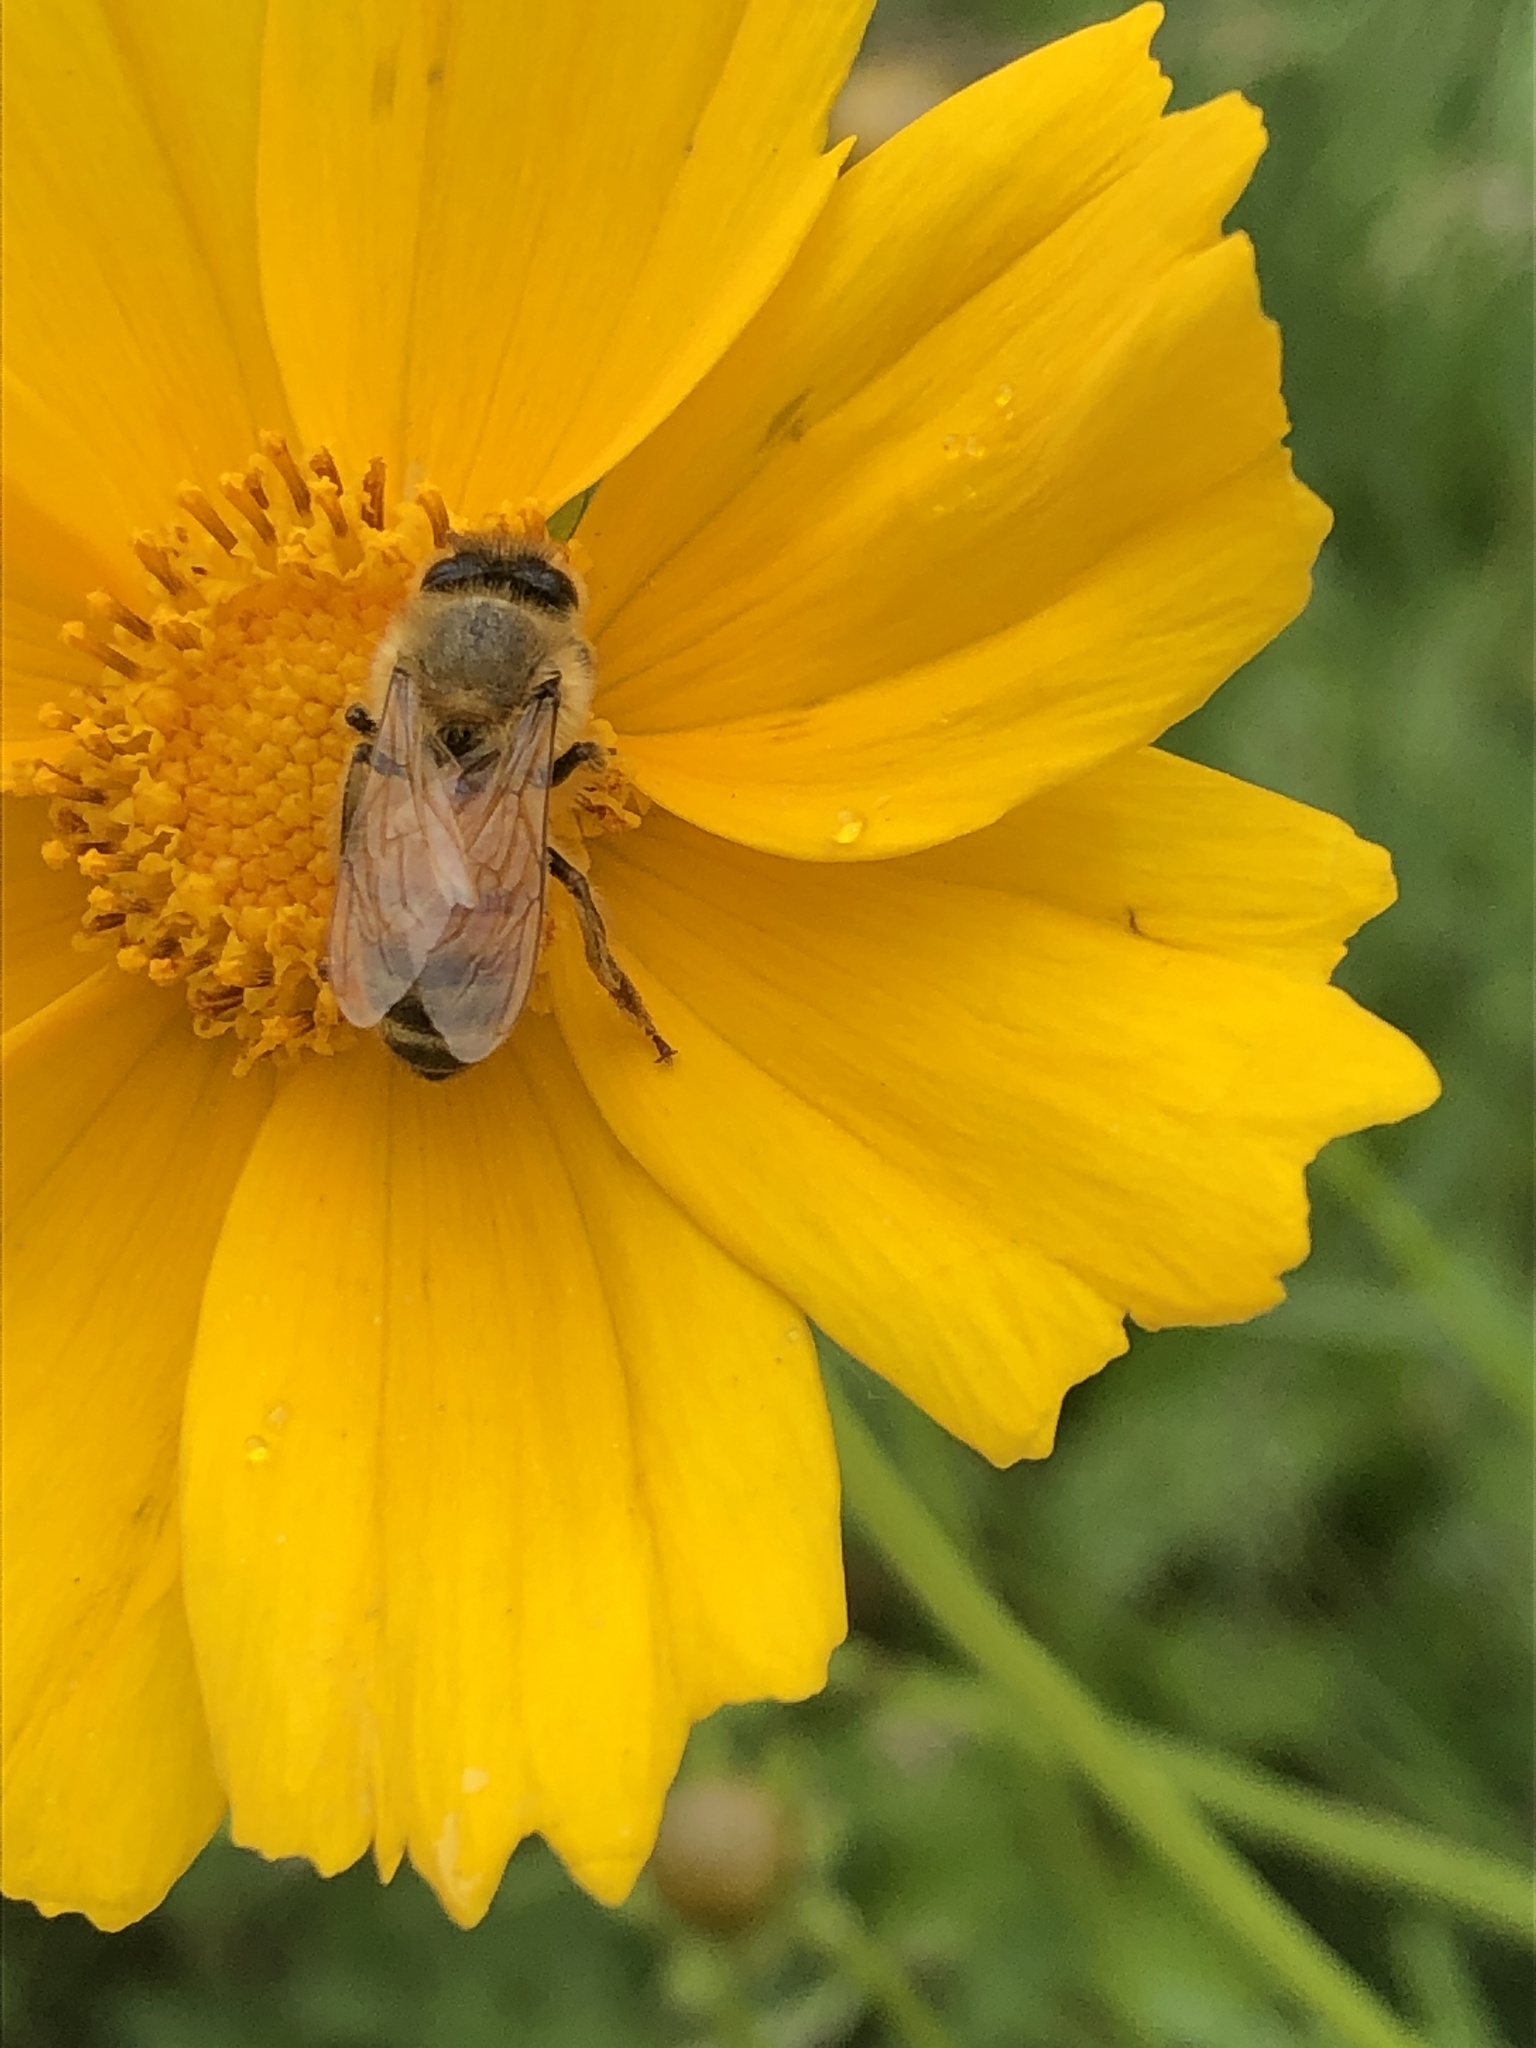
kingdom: Animalia
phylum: Arthropoda
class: Insecta
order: Hymenoptera
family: Apidae
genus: Apis
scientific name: Apis mellifera
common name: Honey bee
